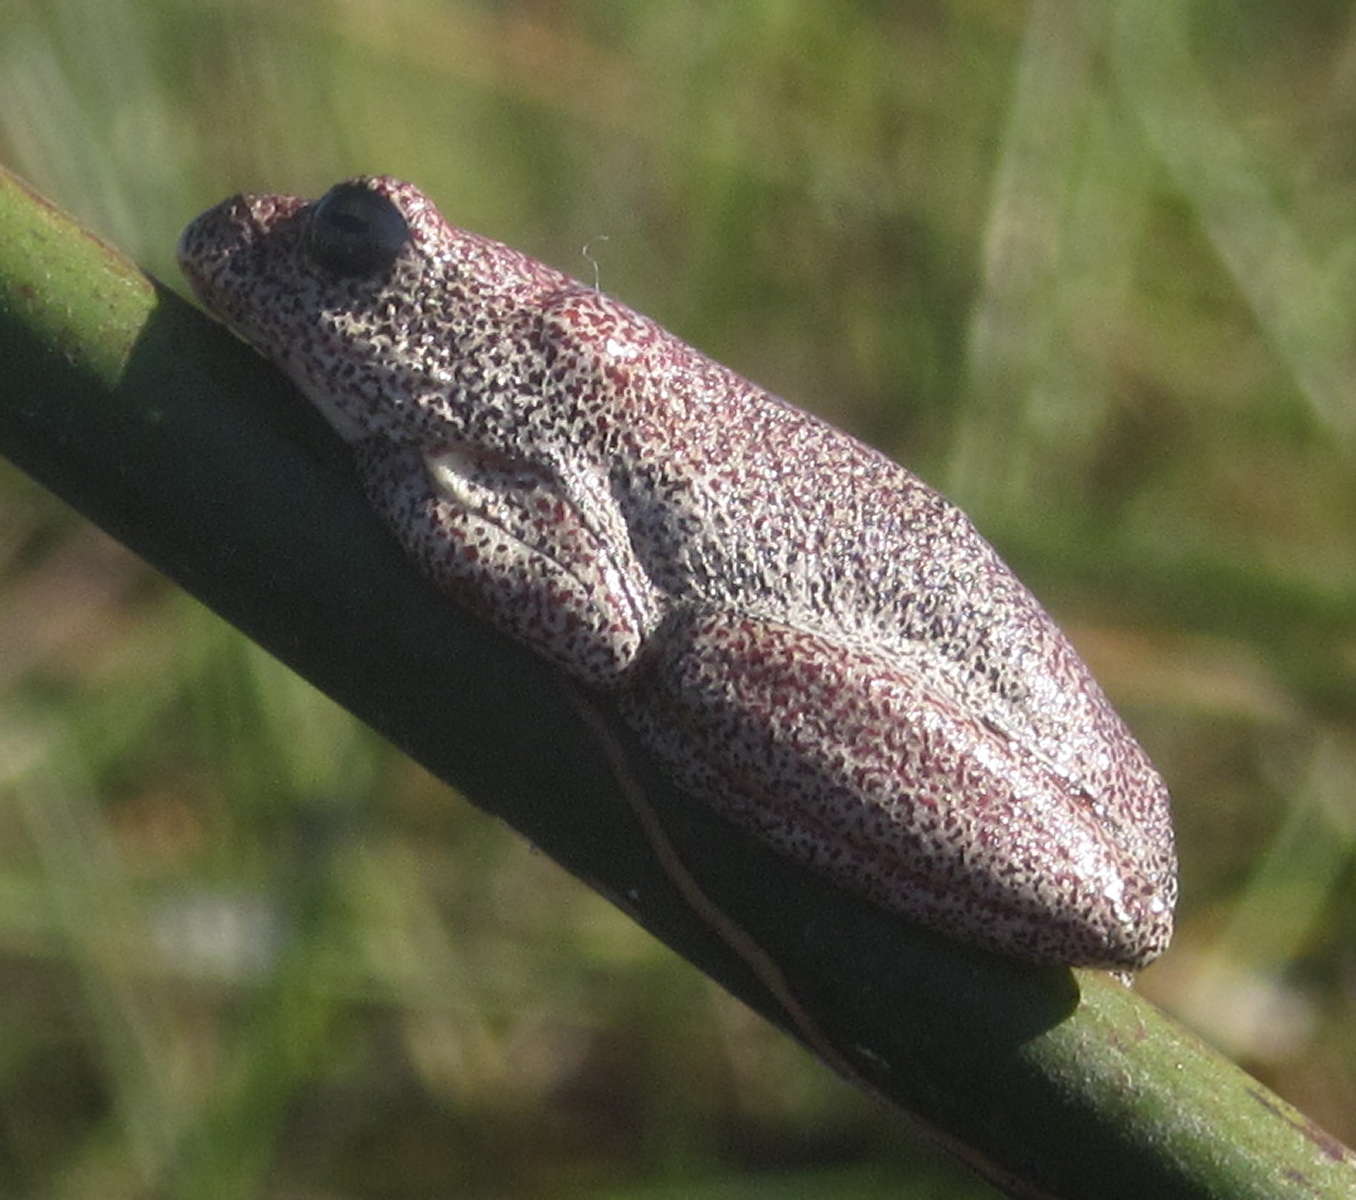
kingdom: Animalia
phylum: Chordata
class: Amphibia
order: Anura
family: Hyperoliidae
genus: Hyperolius
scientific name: Hyperolius parallelus
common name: Angolan reed frog
